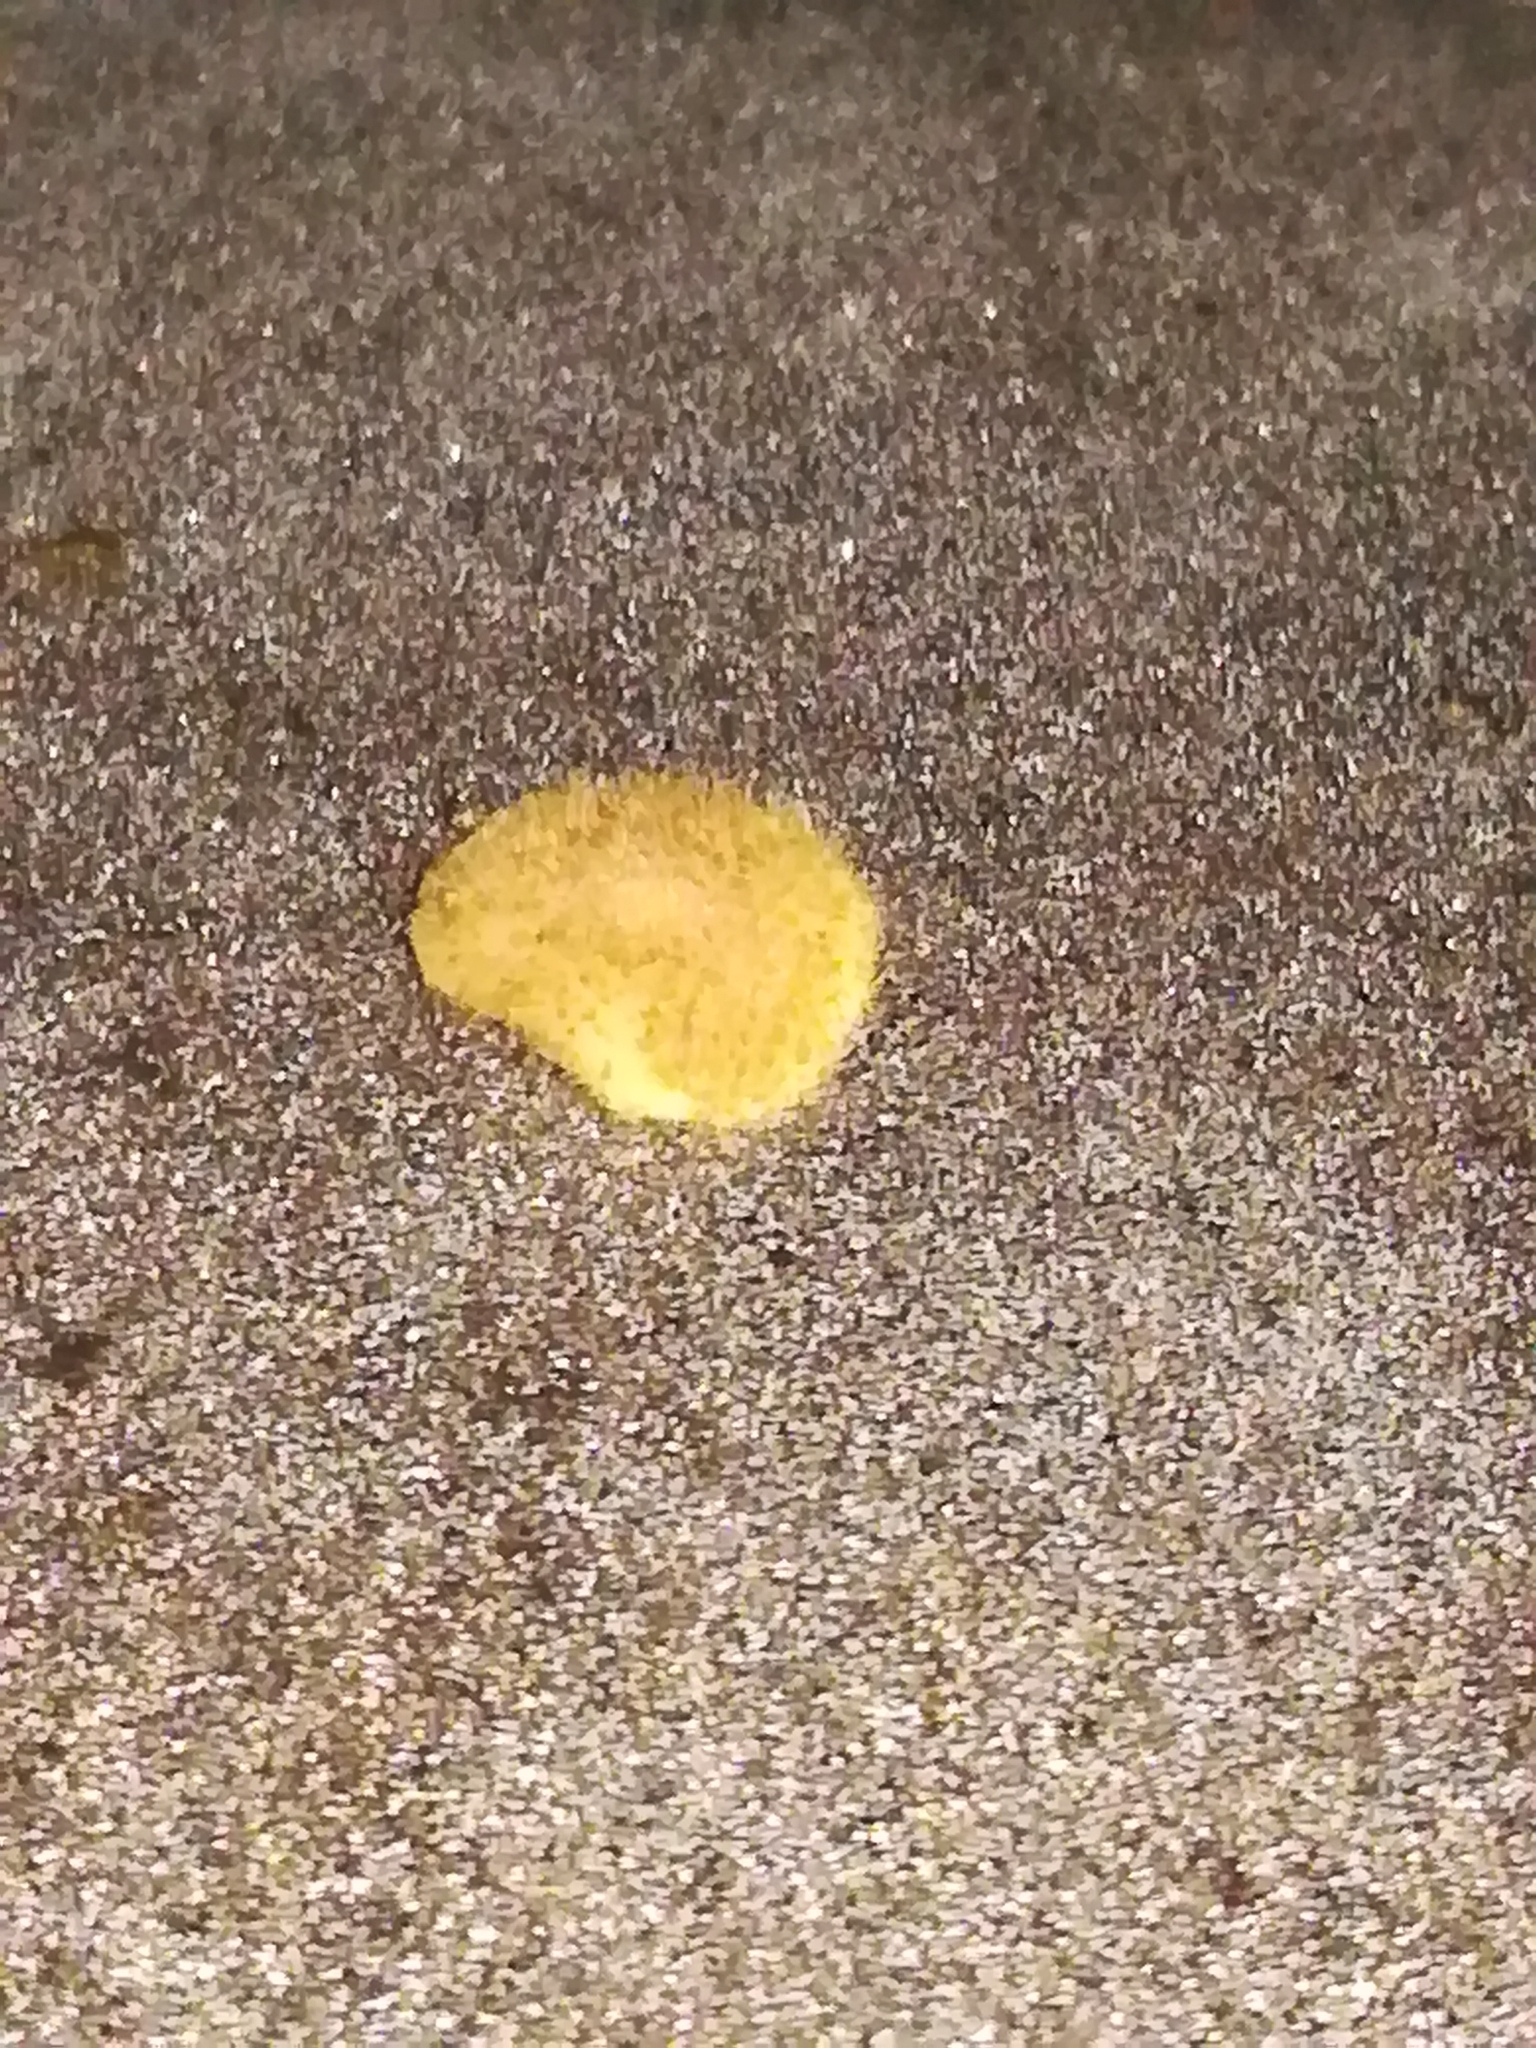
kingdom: Animalia
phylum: Arthropoda
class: Insecta
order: Hymenoptera
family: Cynipidae
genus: Neuroterus
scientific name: Neuroterus quercusbaccarum
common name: Common spangle gall
